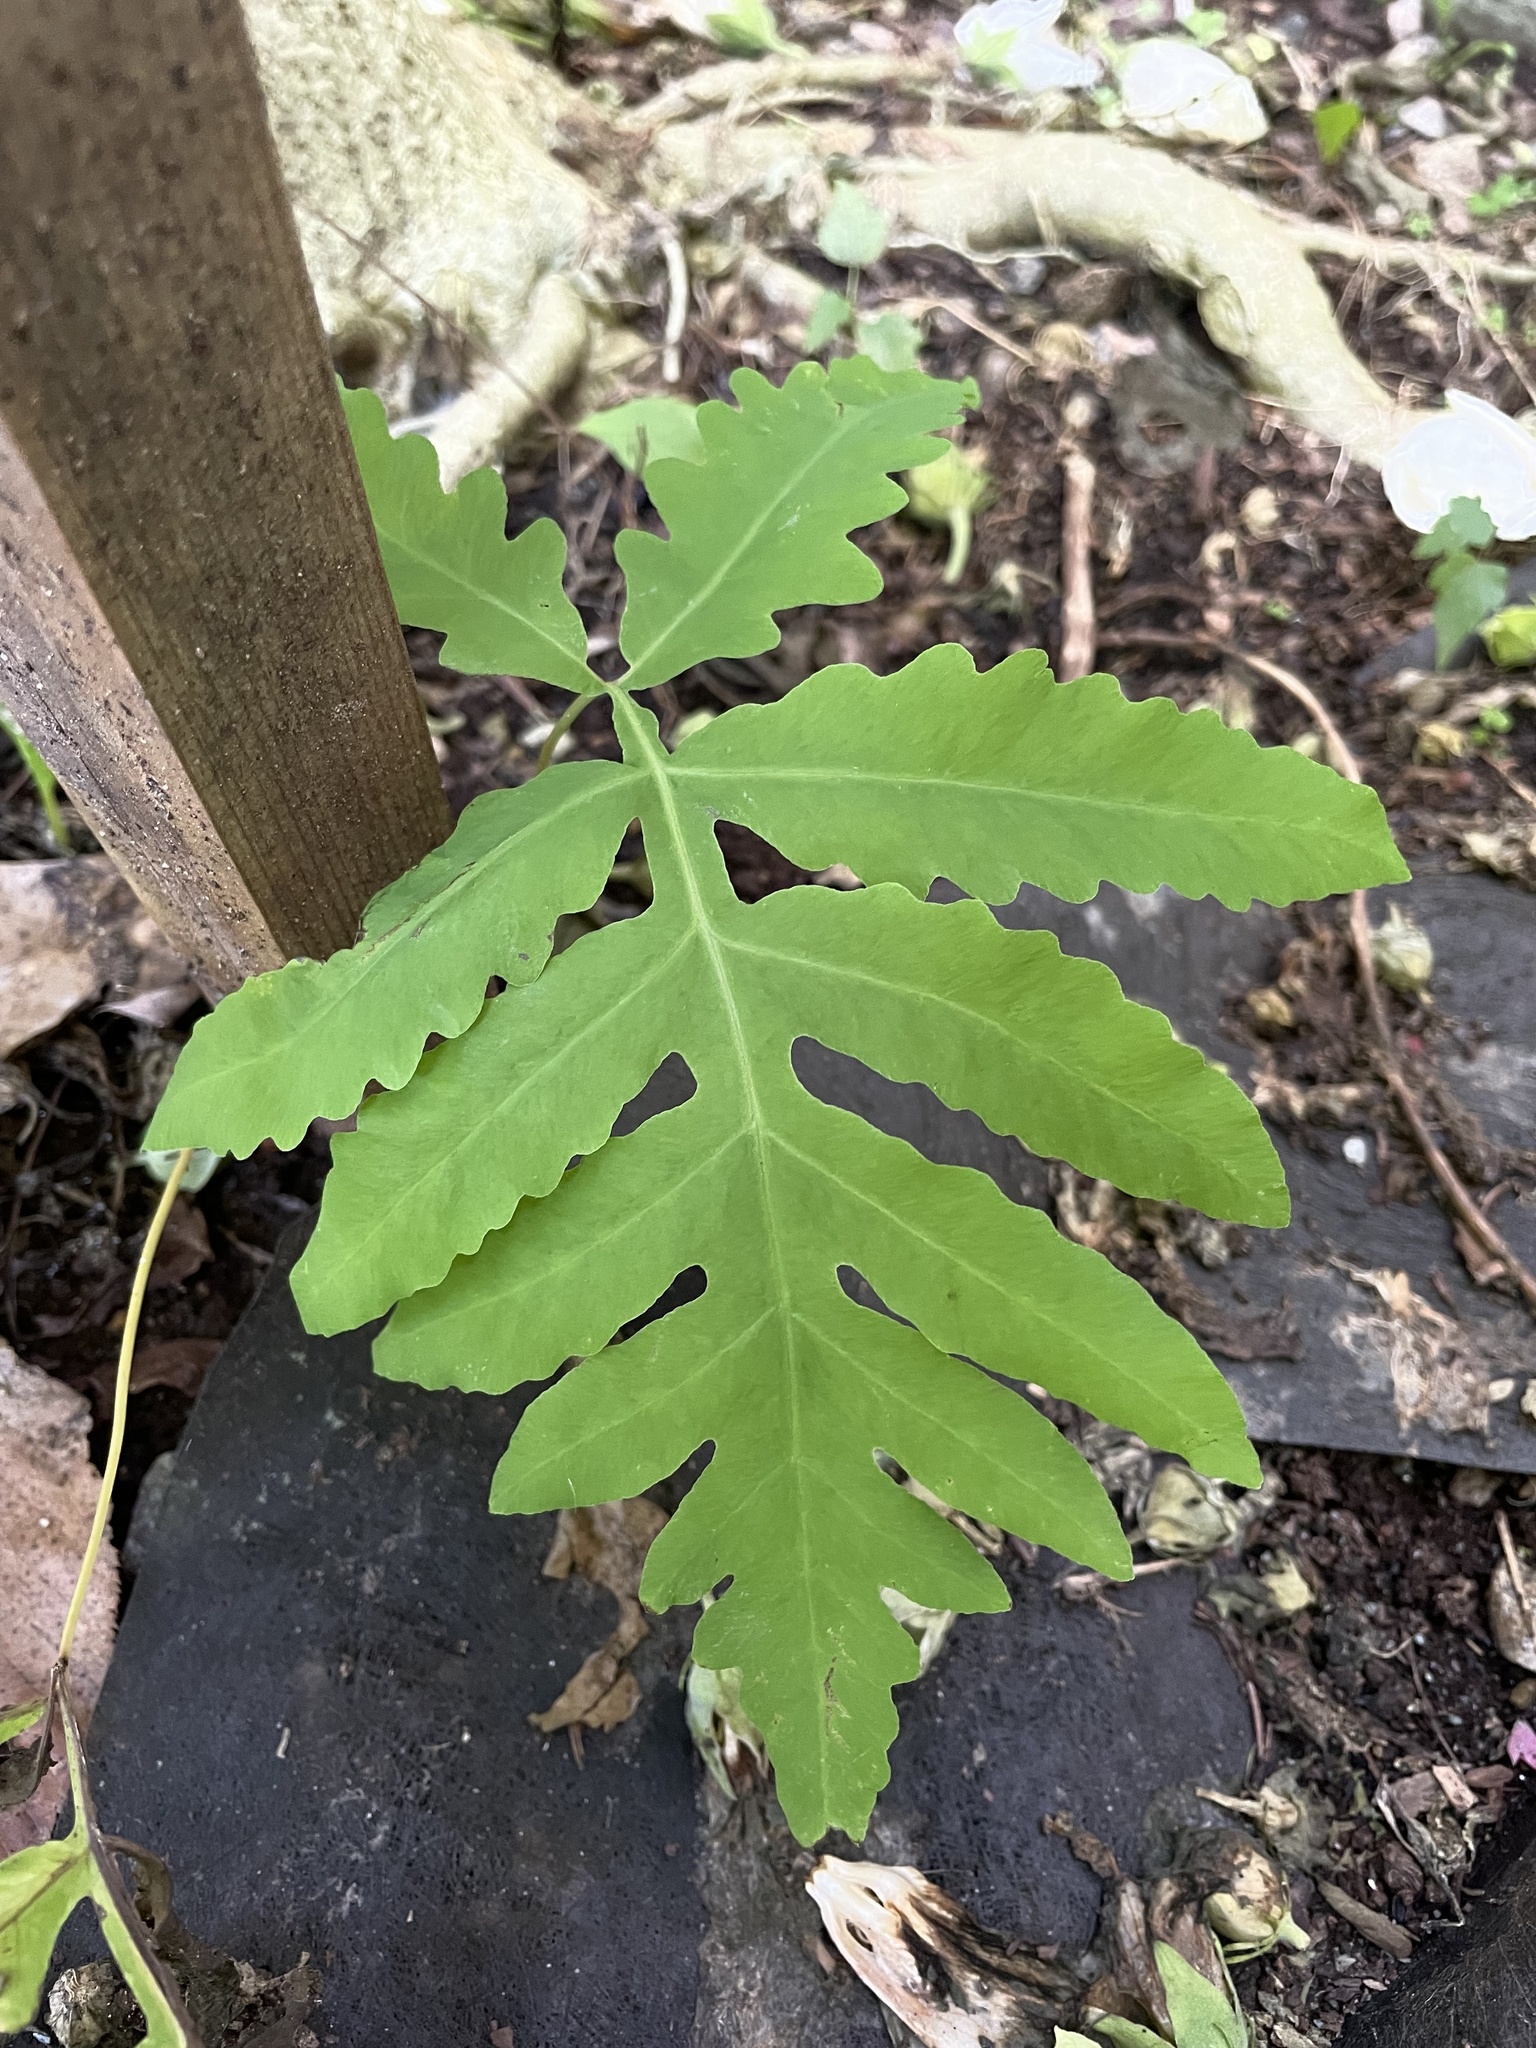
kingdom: Plantae
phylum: Tracheophyta
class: Polypodiopsida
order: Polypodiales
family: Onocleaceae
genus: Onoclea
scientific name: Onoclea sensibilis
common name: Sensitive fern
